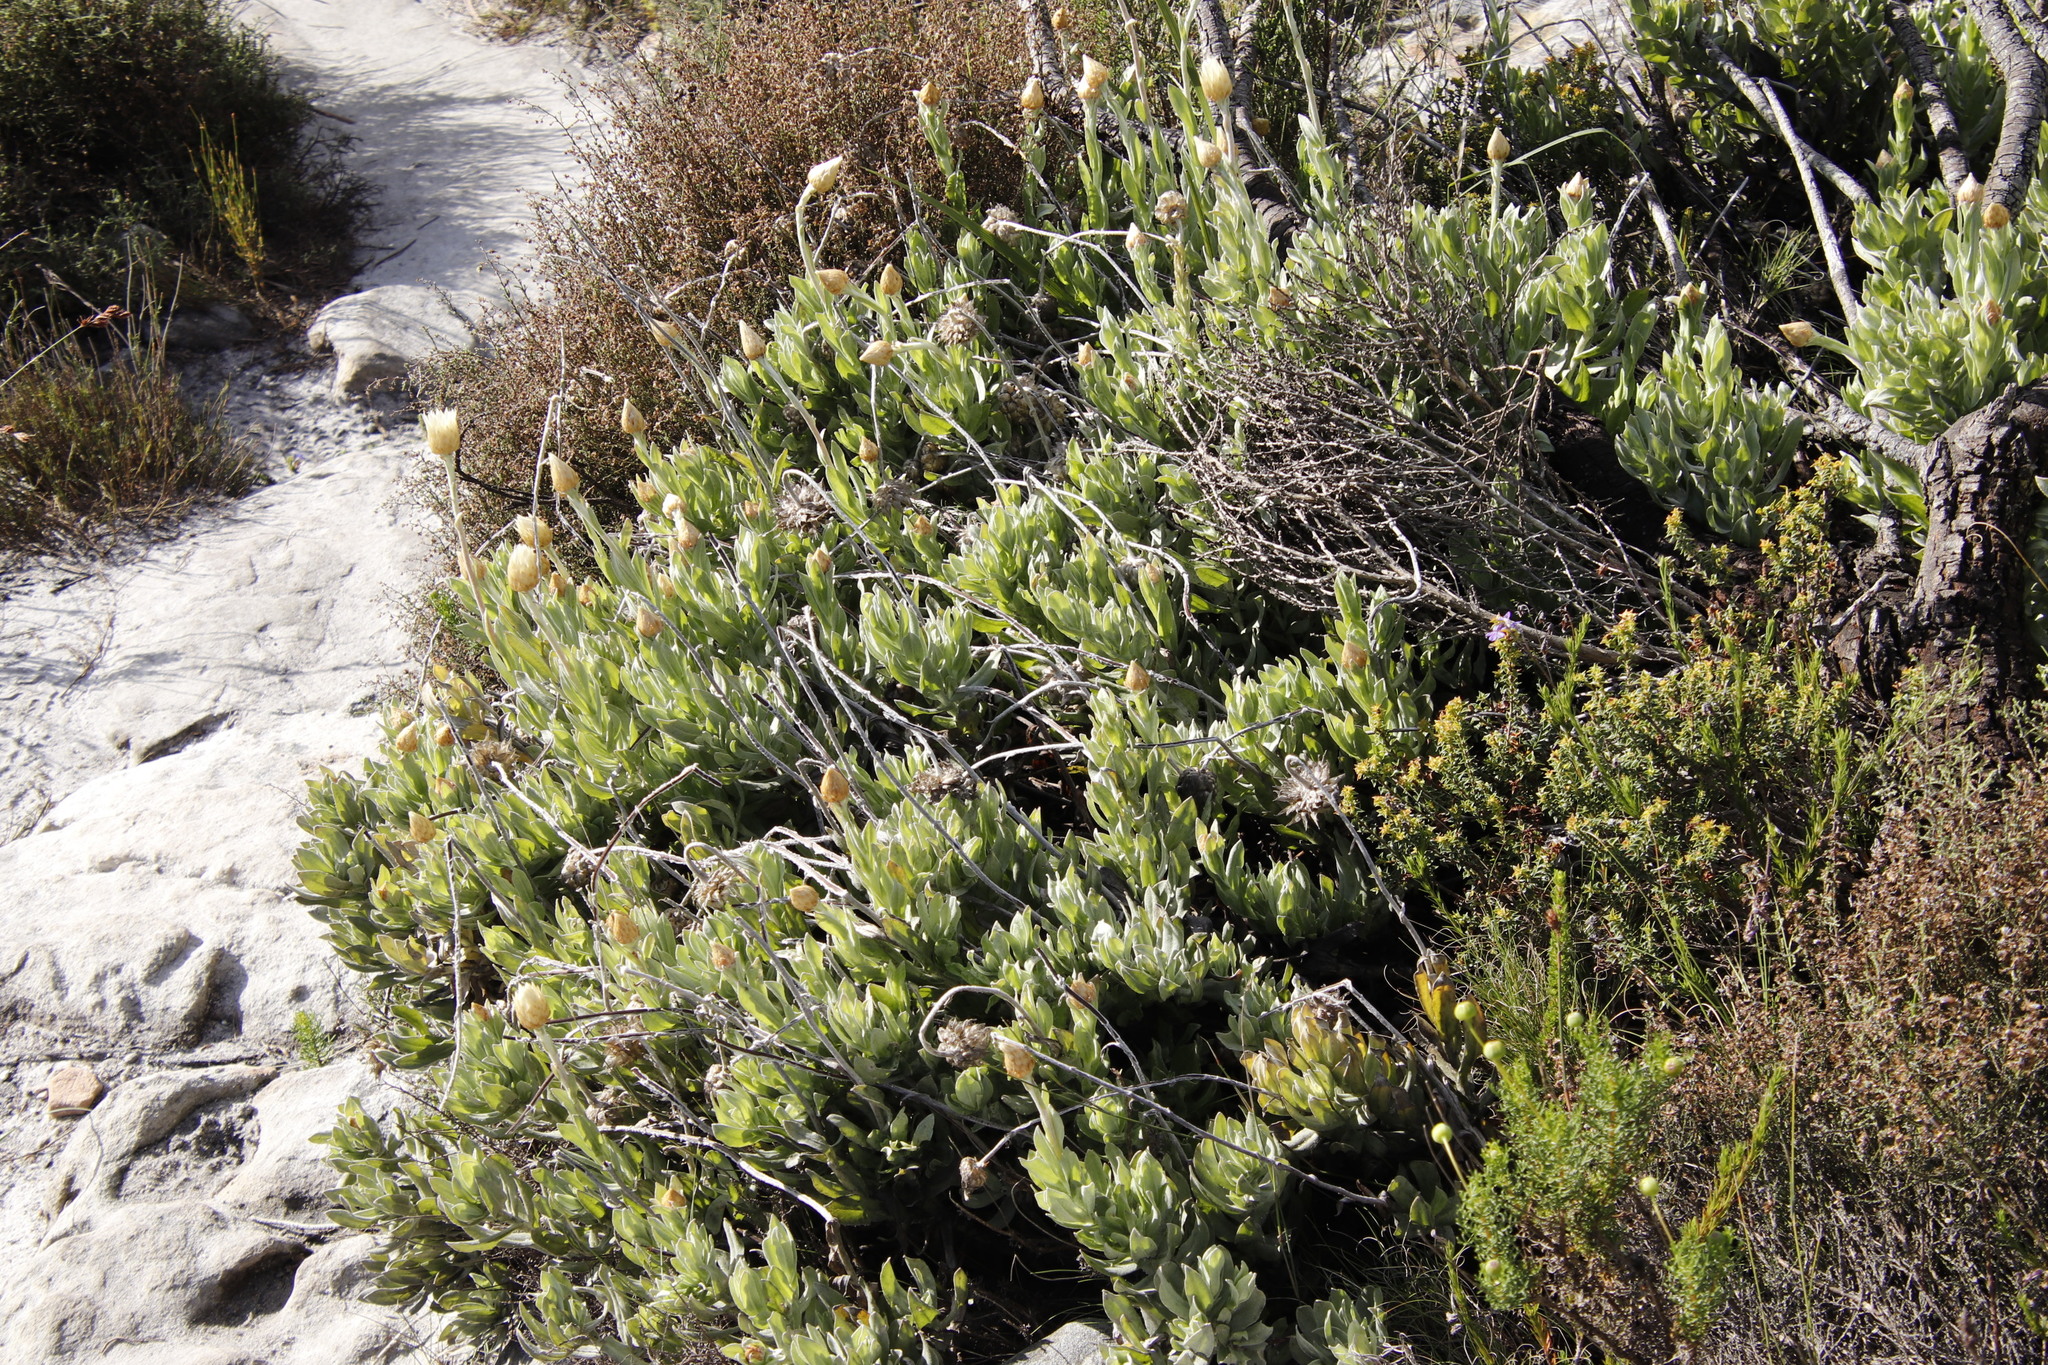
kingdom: Plantae
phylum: Tracheophyta
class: Magnoliopsida
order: Asterales
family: Asteraceae
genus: Syncarpha
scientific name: Syncarpha speciosissima
